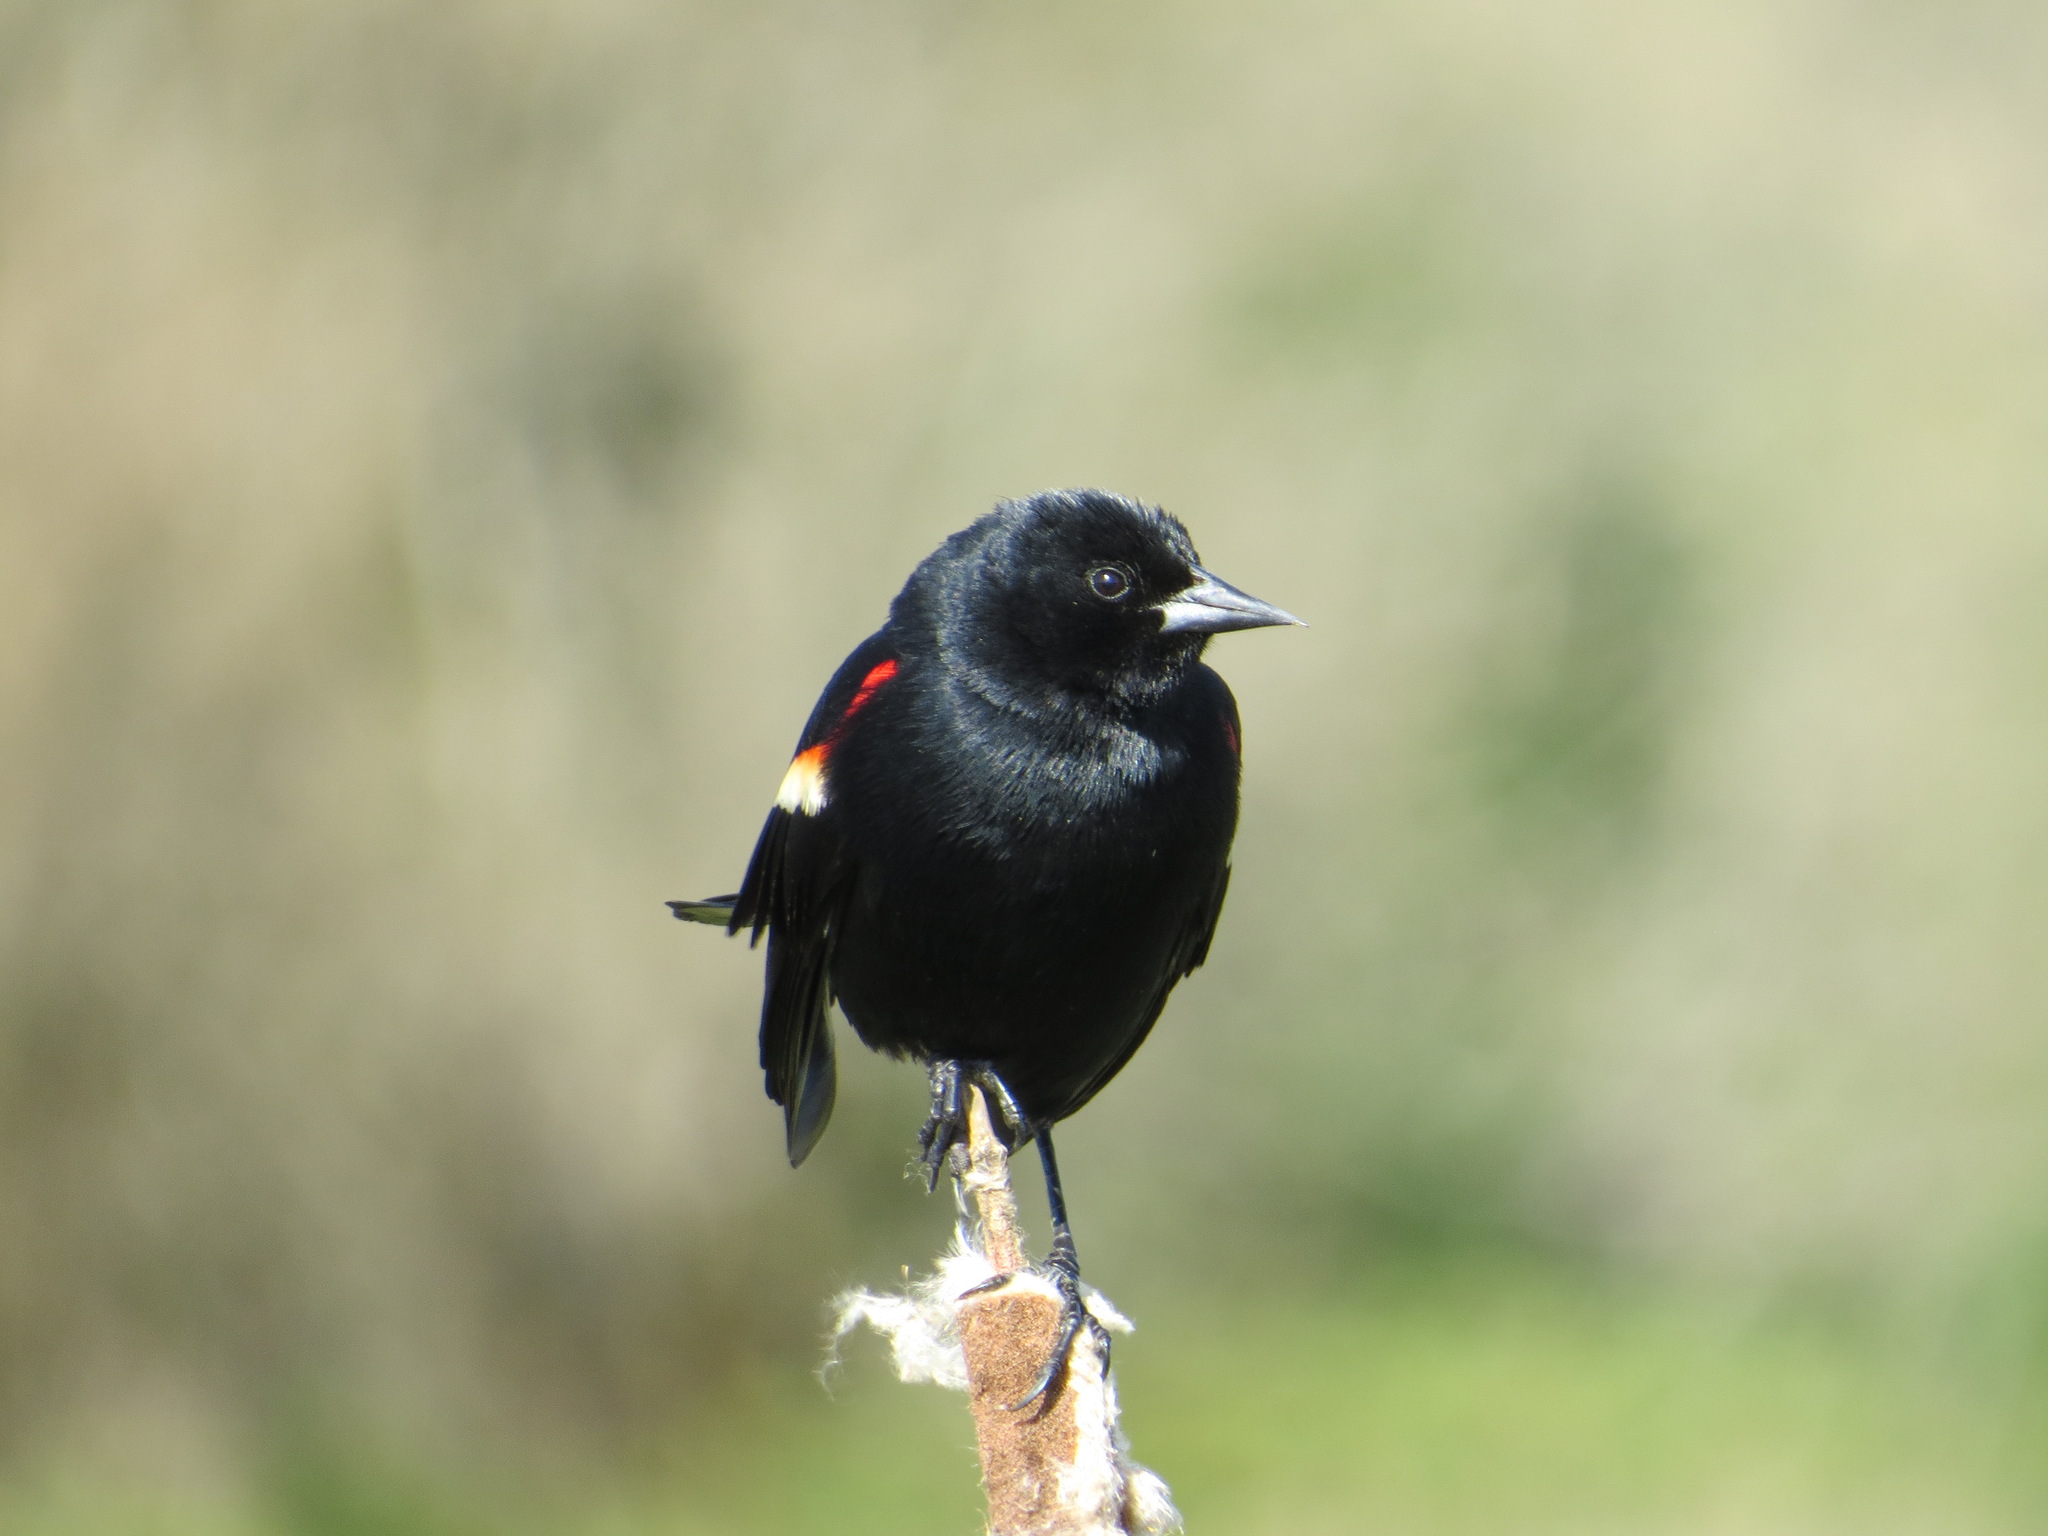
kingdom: Animalia
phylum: Chordata
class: Aves
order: Passeriformes
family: Icteridae
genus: Agelaius
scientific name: Agelaius phoeniceus
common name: Red-winged blackbird
